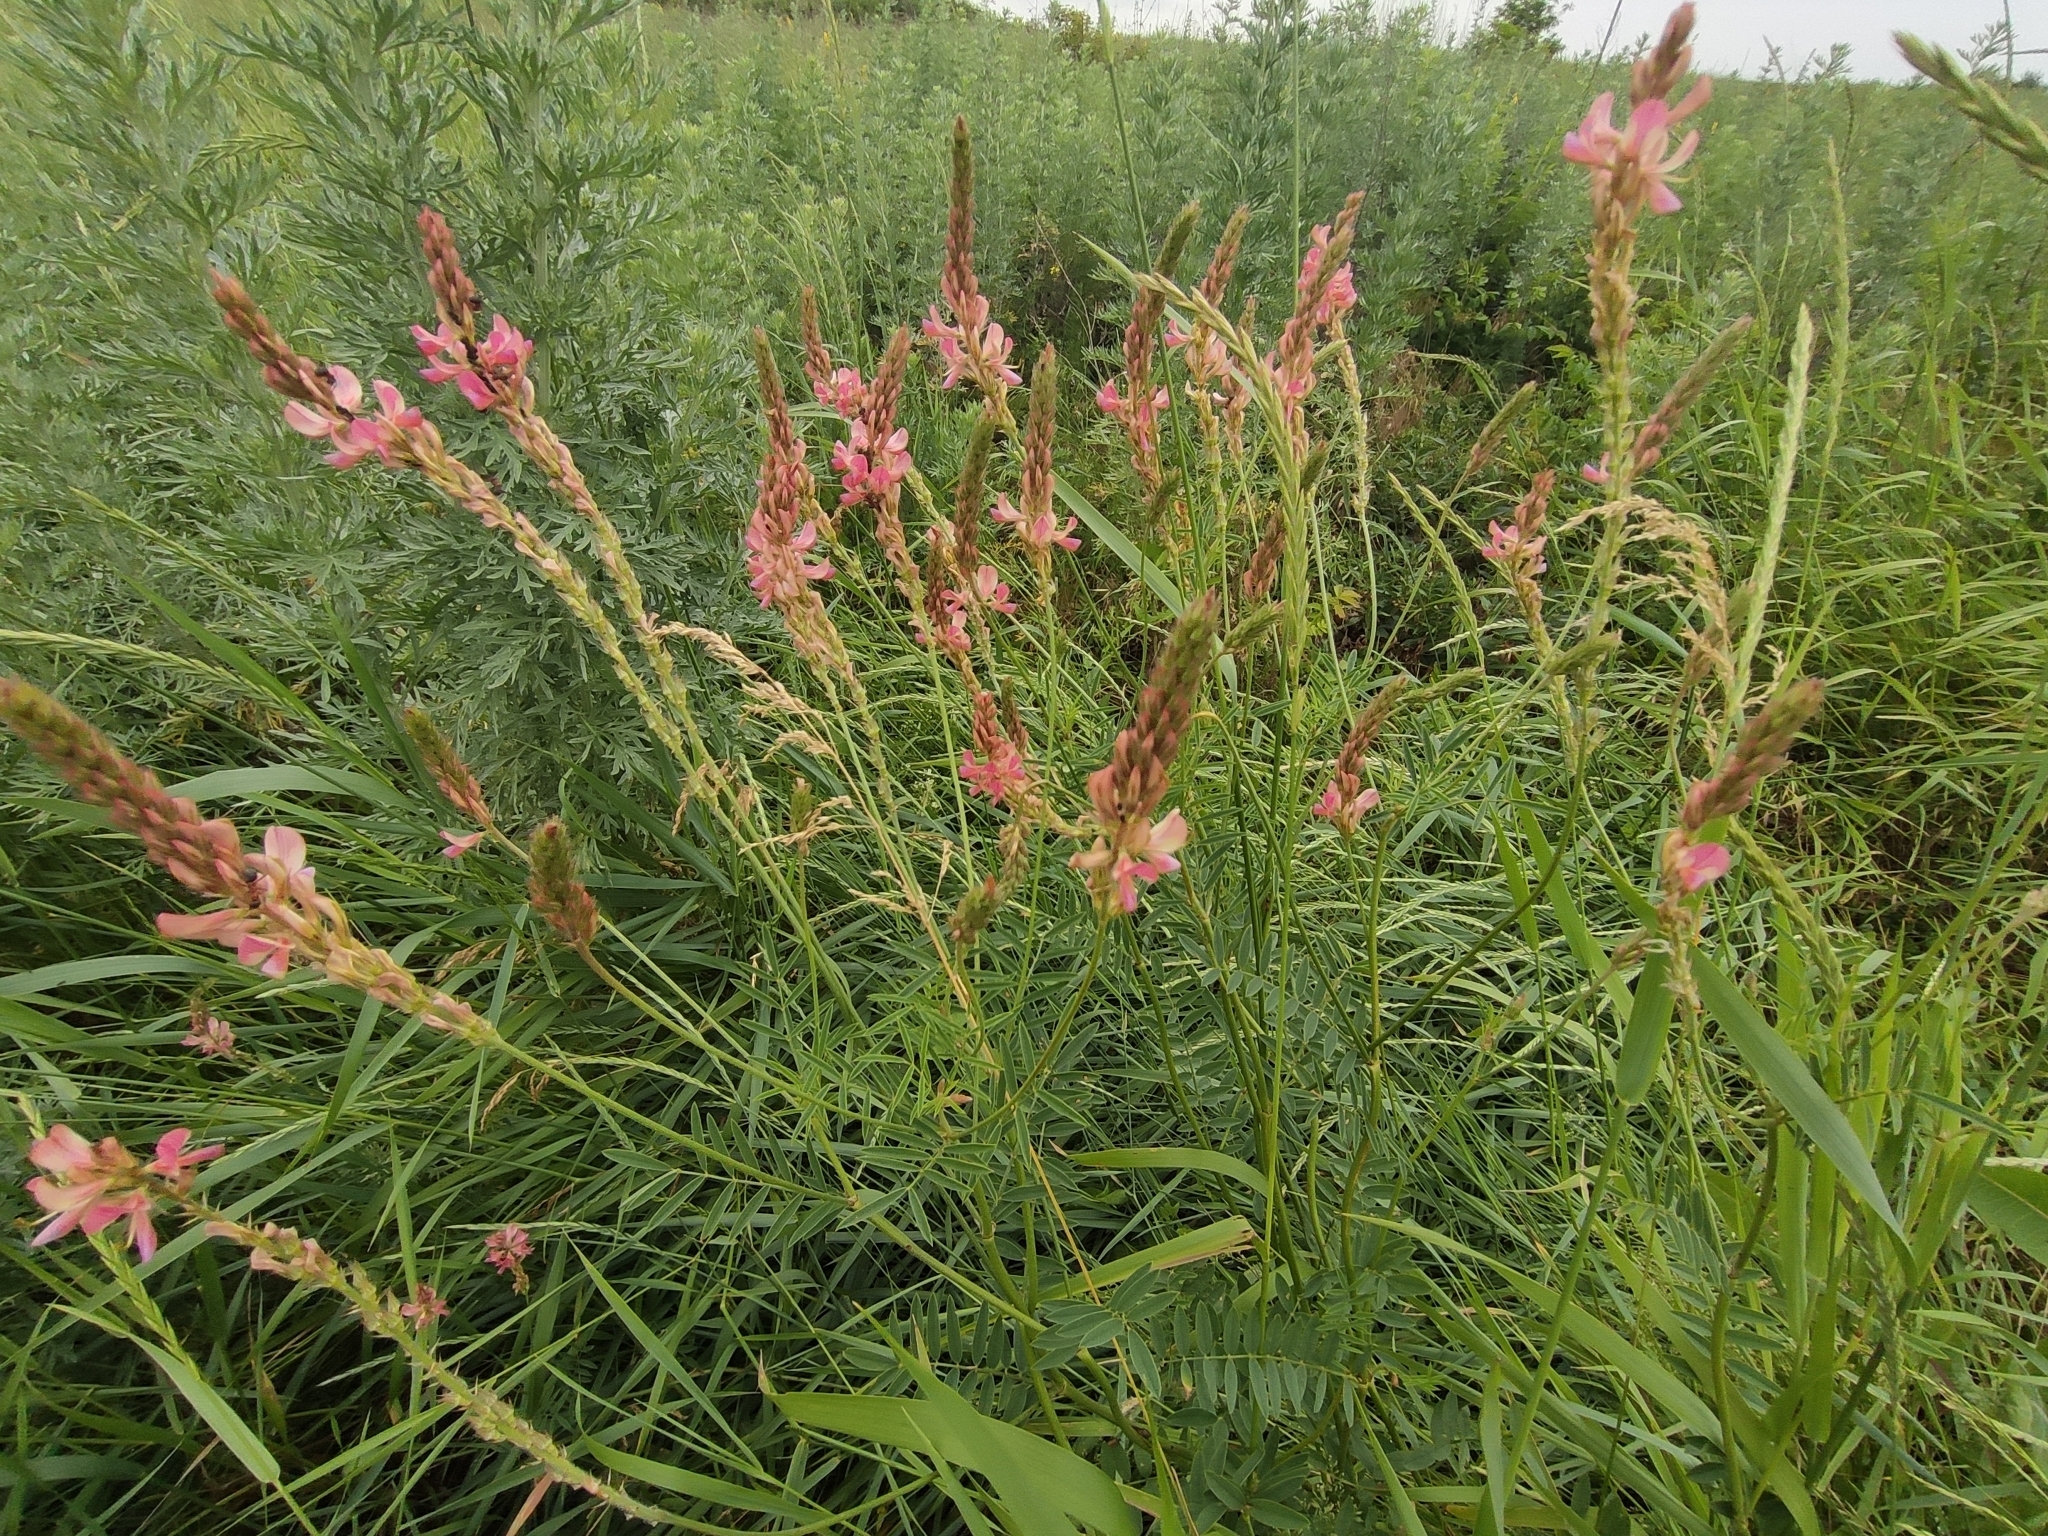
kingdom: Plantae
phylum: Tracheophyta
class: Magnoliopsida
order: Fabales
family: Fabaceae
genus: Onobrychis
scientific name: Onobrychis viciifolia
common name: Sainfoin
